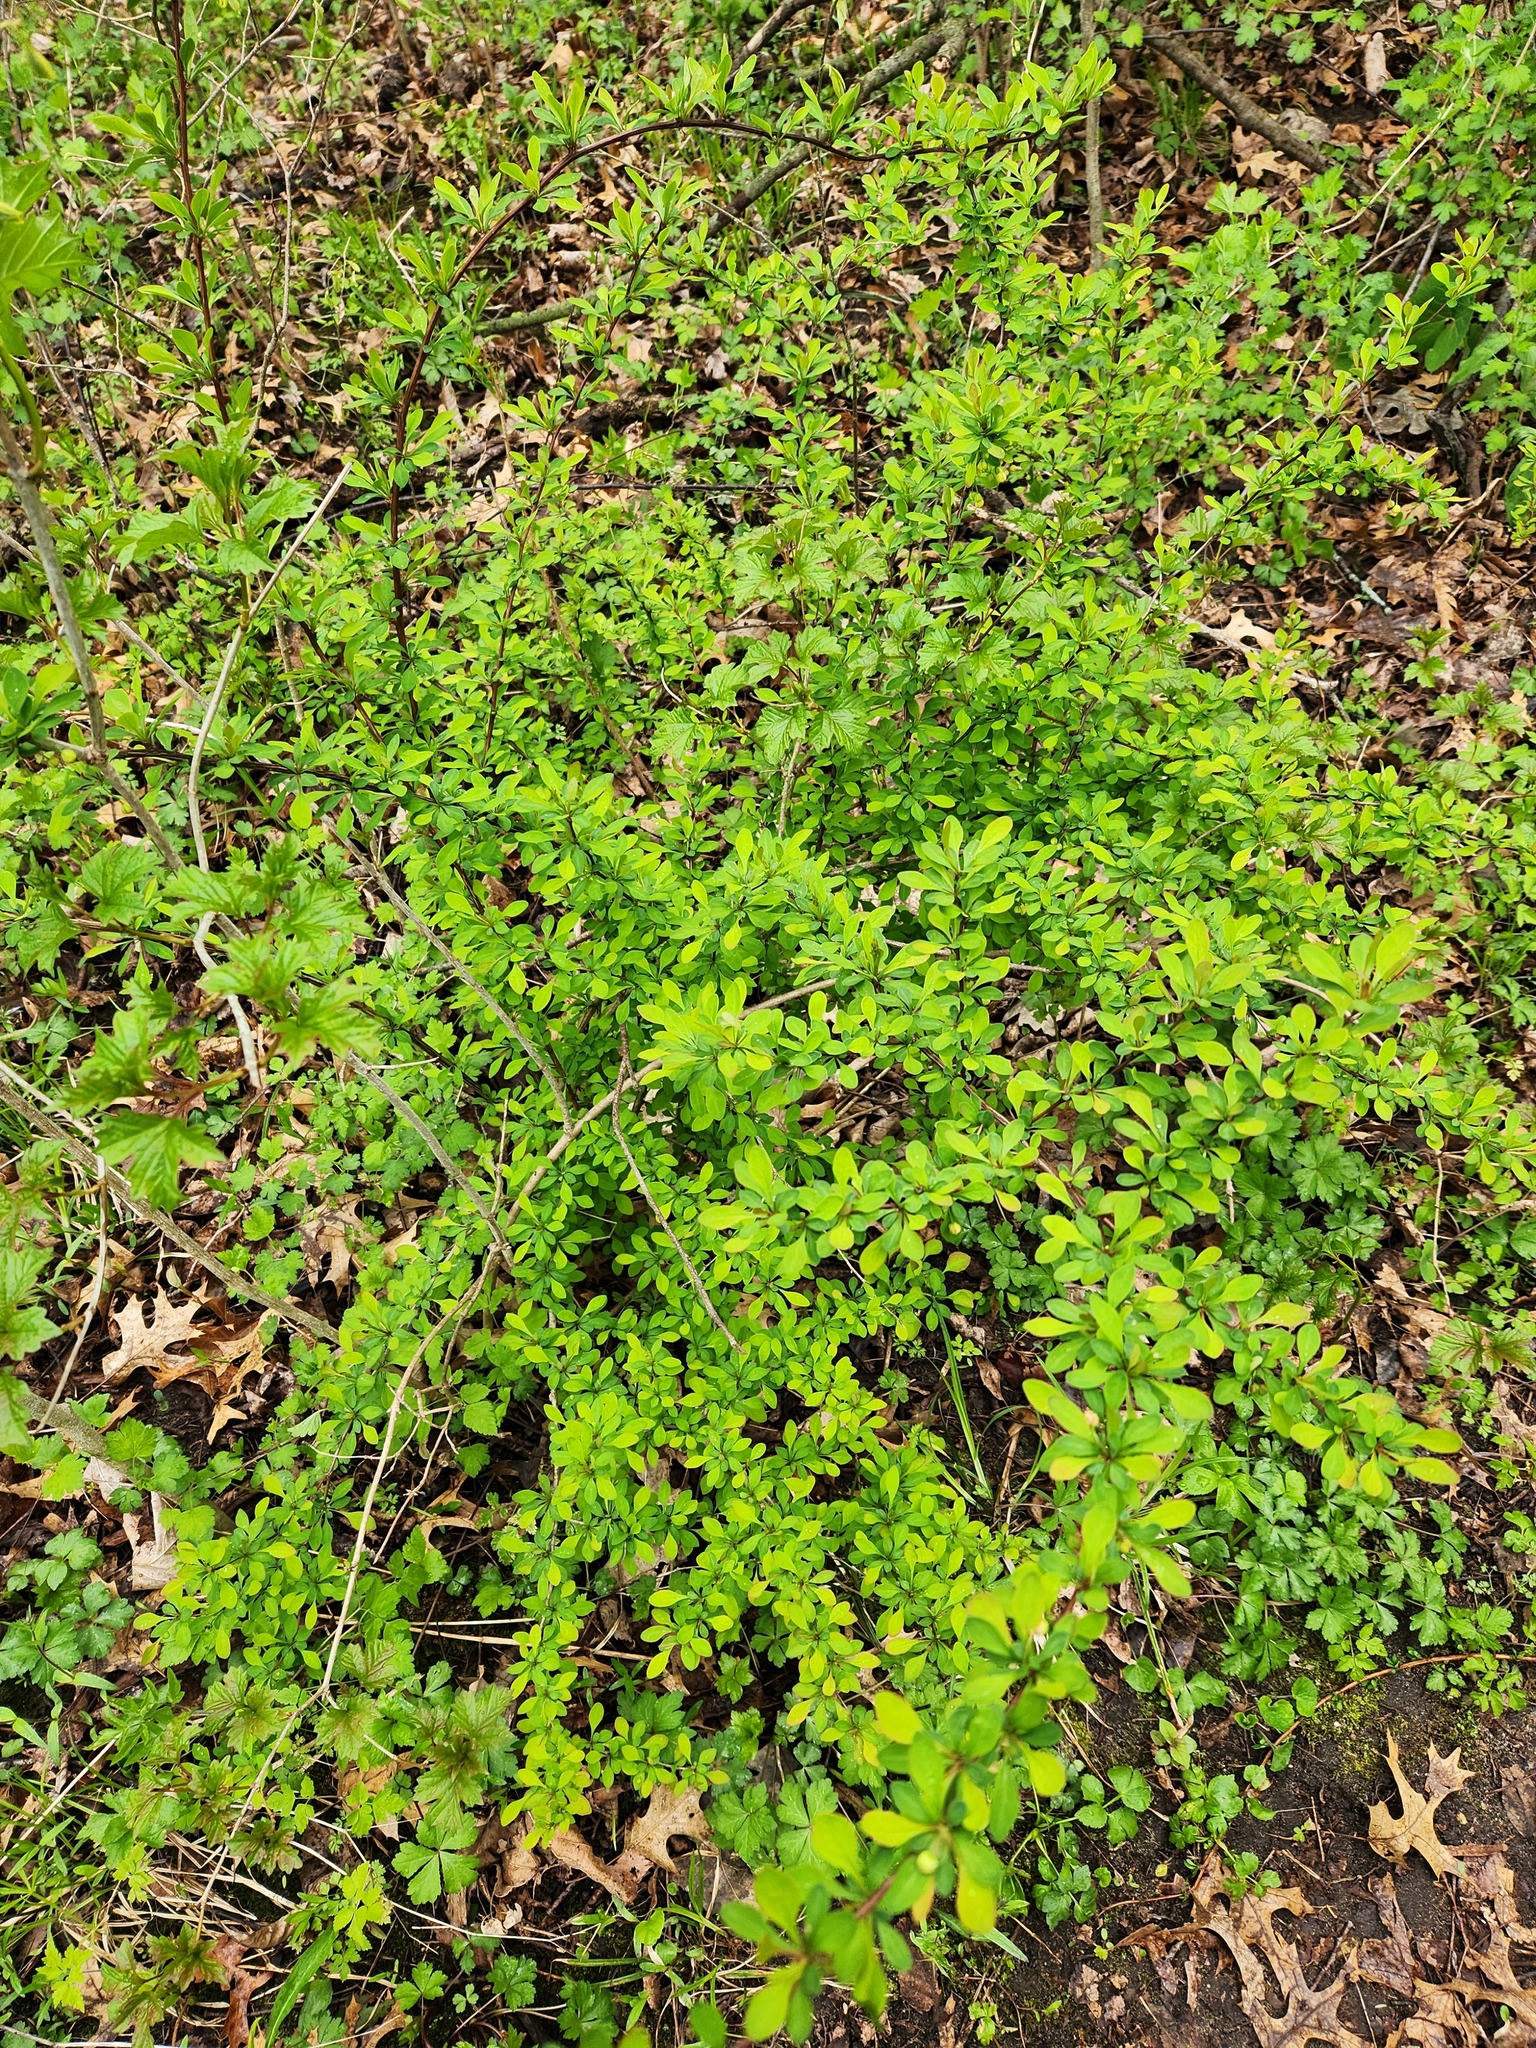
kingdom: Plantae
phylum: Tracheophyta
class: Magnoliopsida
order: Ranunculales
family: Berberidaceae
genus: Berberis
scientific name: Berberis thunbergii
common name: Japanese barberry
